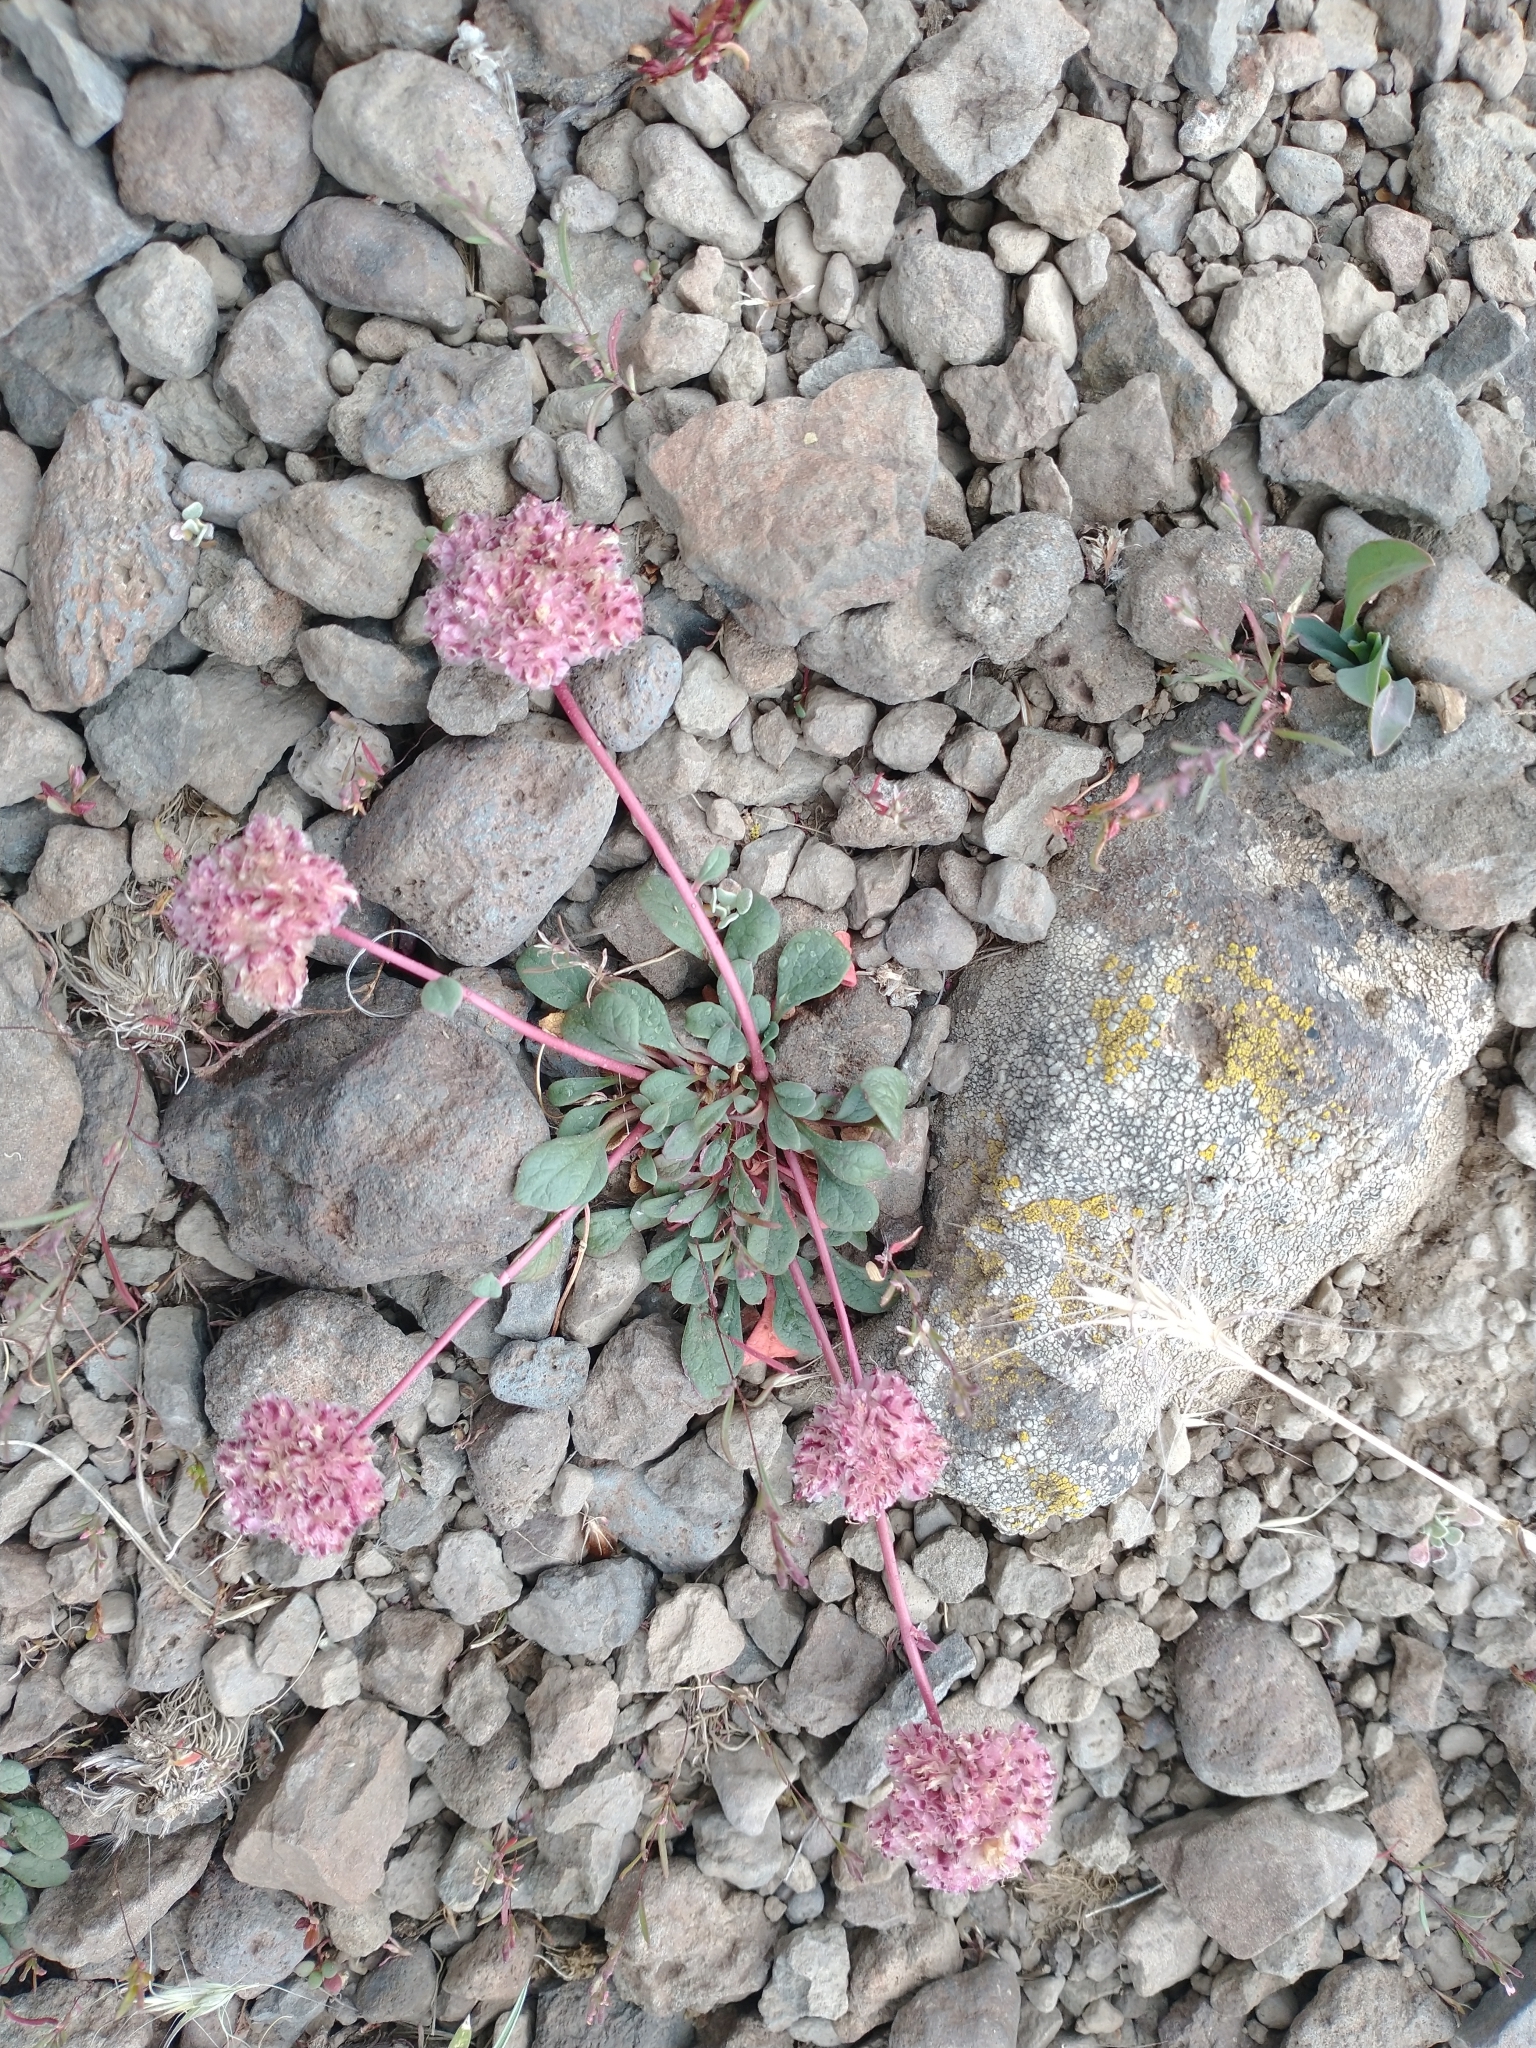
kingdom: Plantae
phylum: Tracheophyta
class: Magnoliopsida
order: Caryophyllales
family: Montiaceae
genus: Calyptridium
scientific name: Calyptridium monospermum
